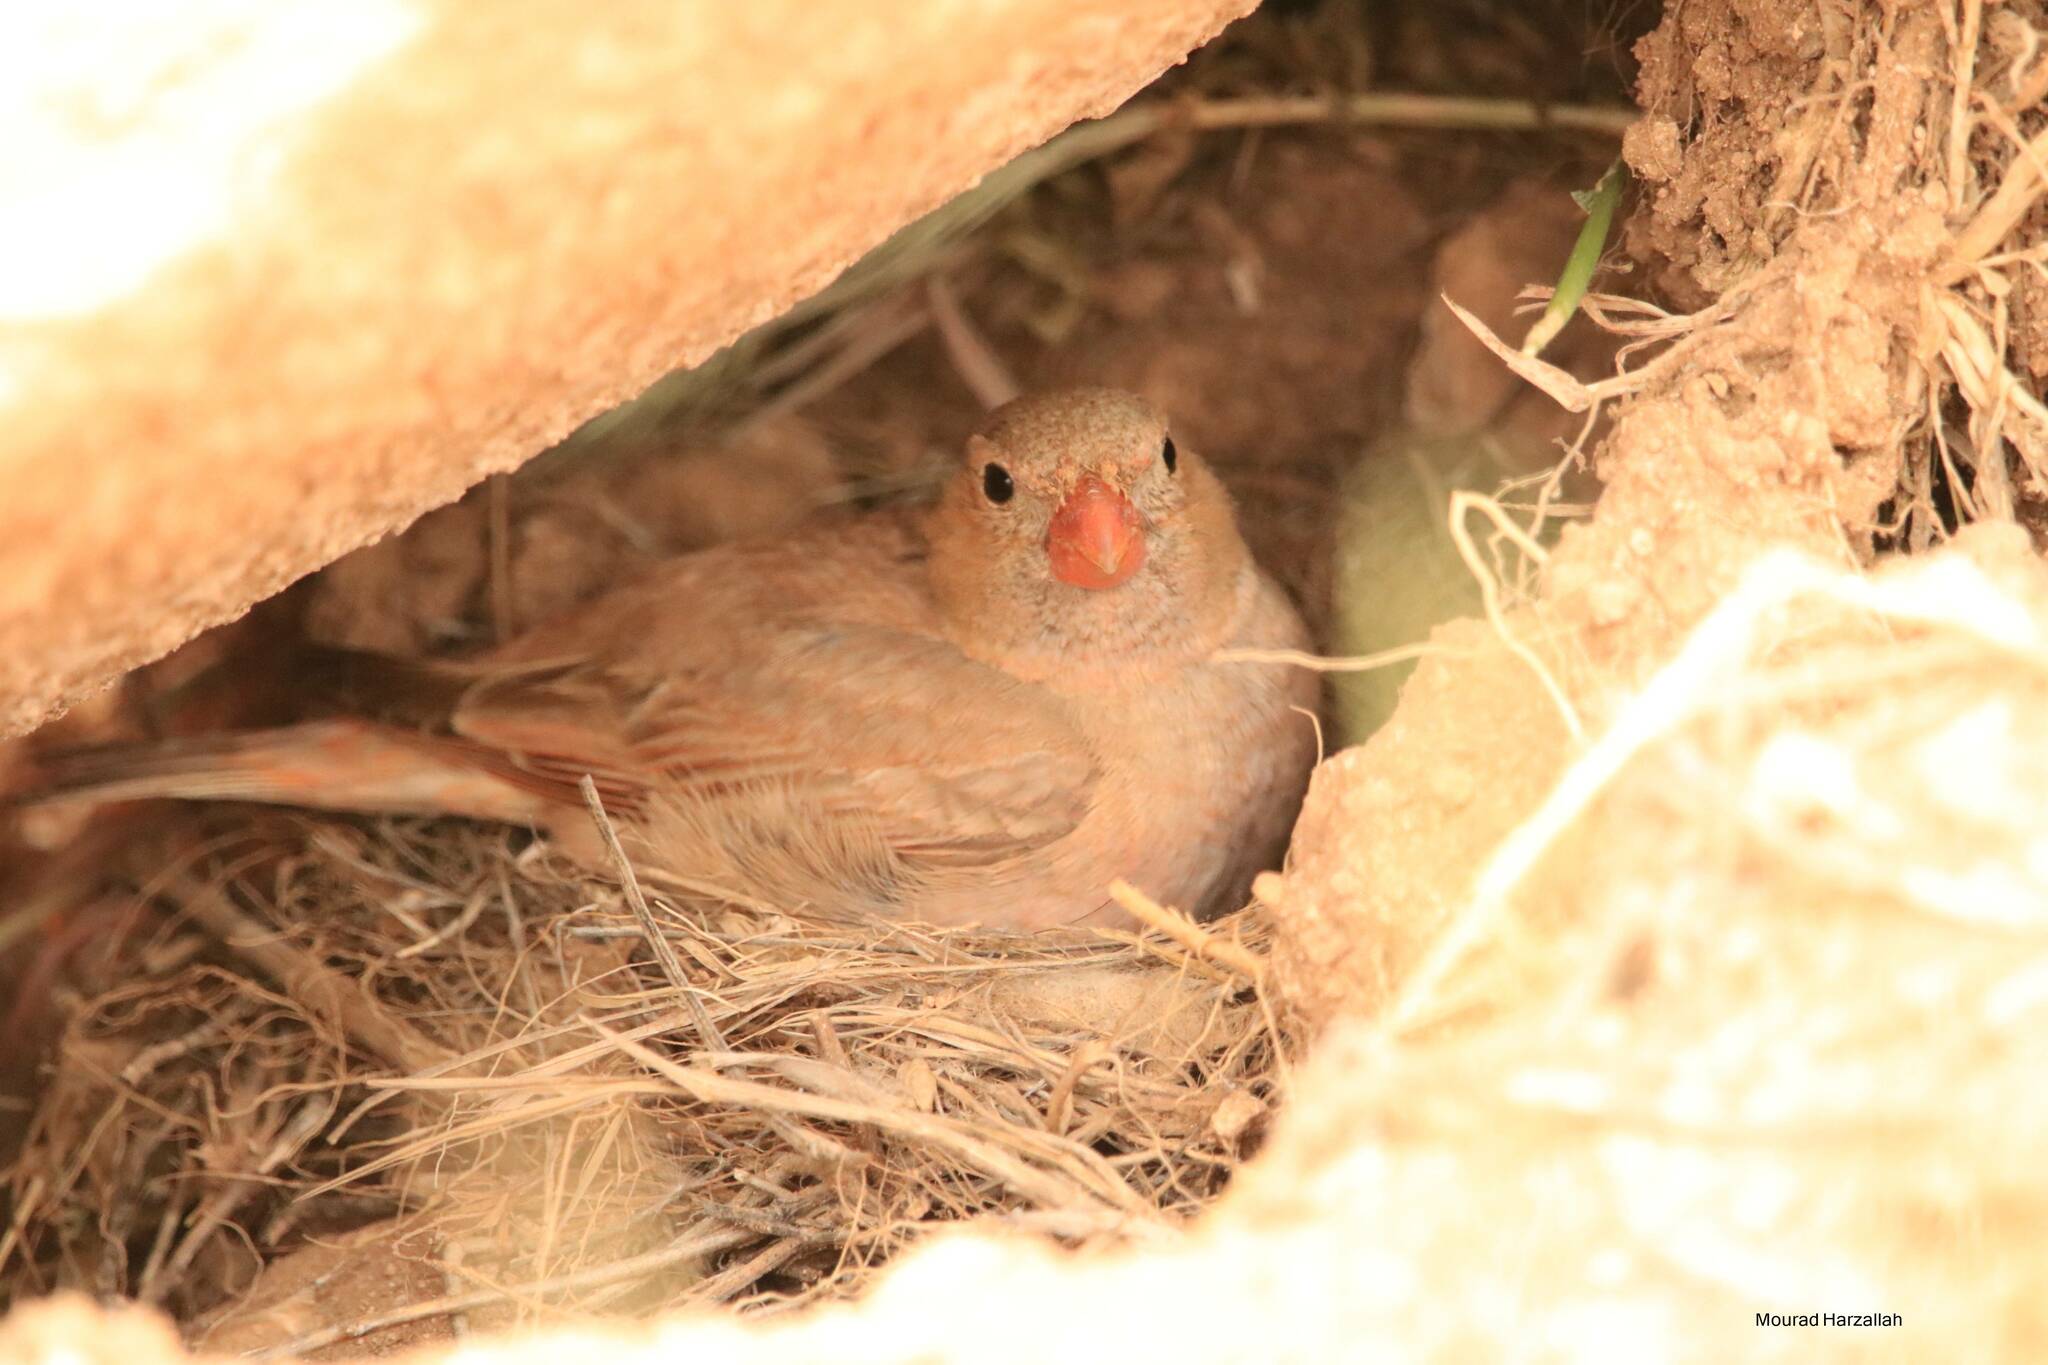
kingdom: Animalia
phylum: Chordata
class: Aves
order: Passeriformes
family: Fringillidae
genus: Bucanetes
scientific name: Bucanetes githagineus
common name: Trumpeter finch
